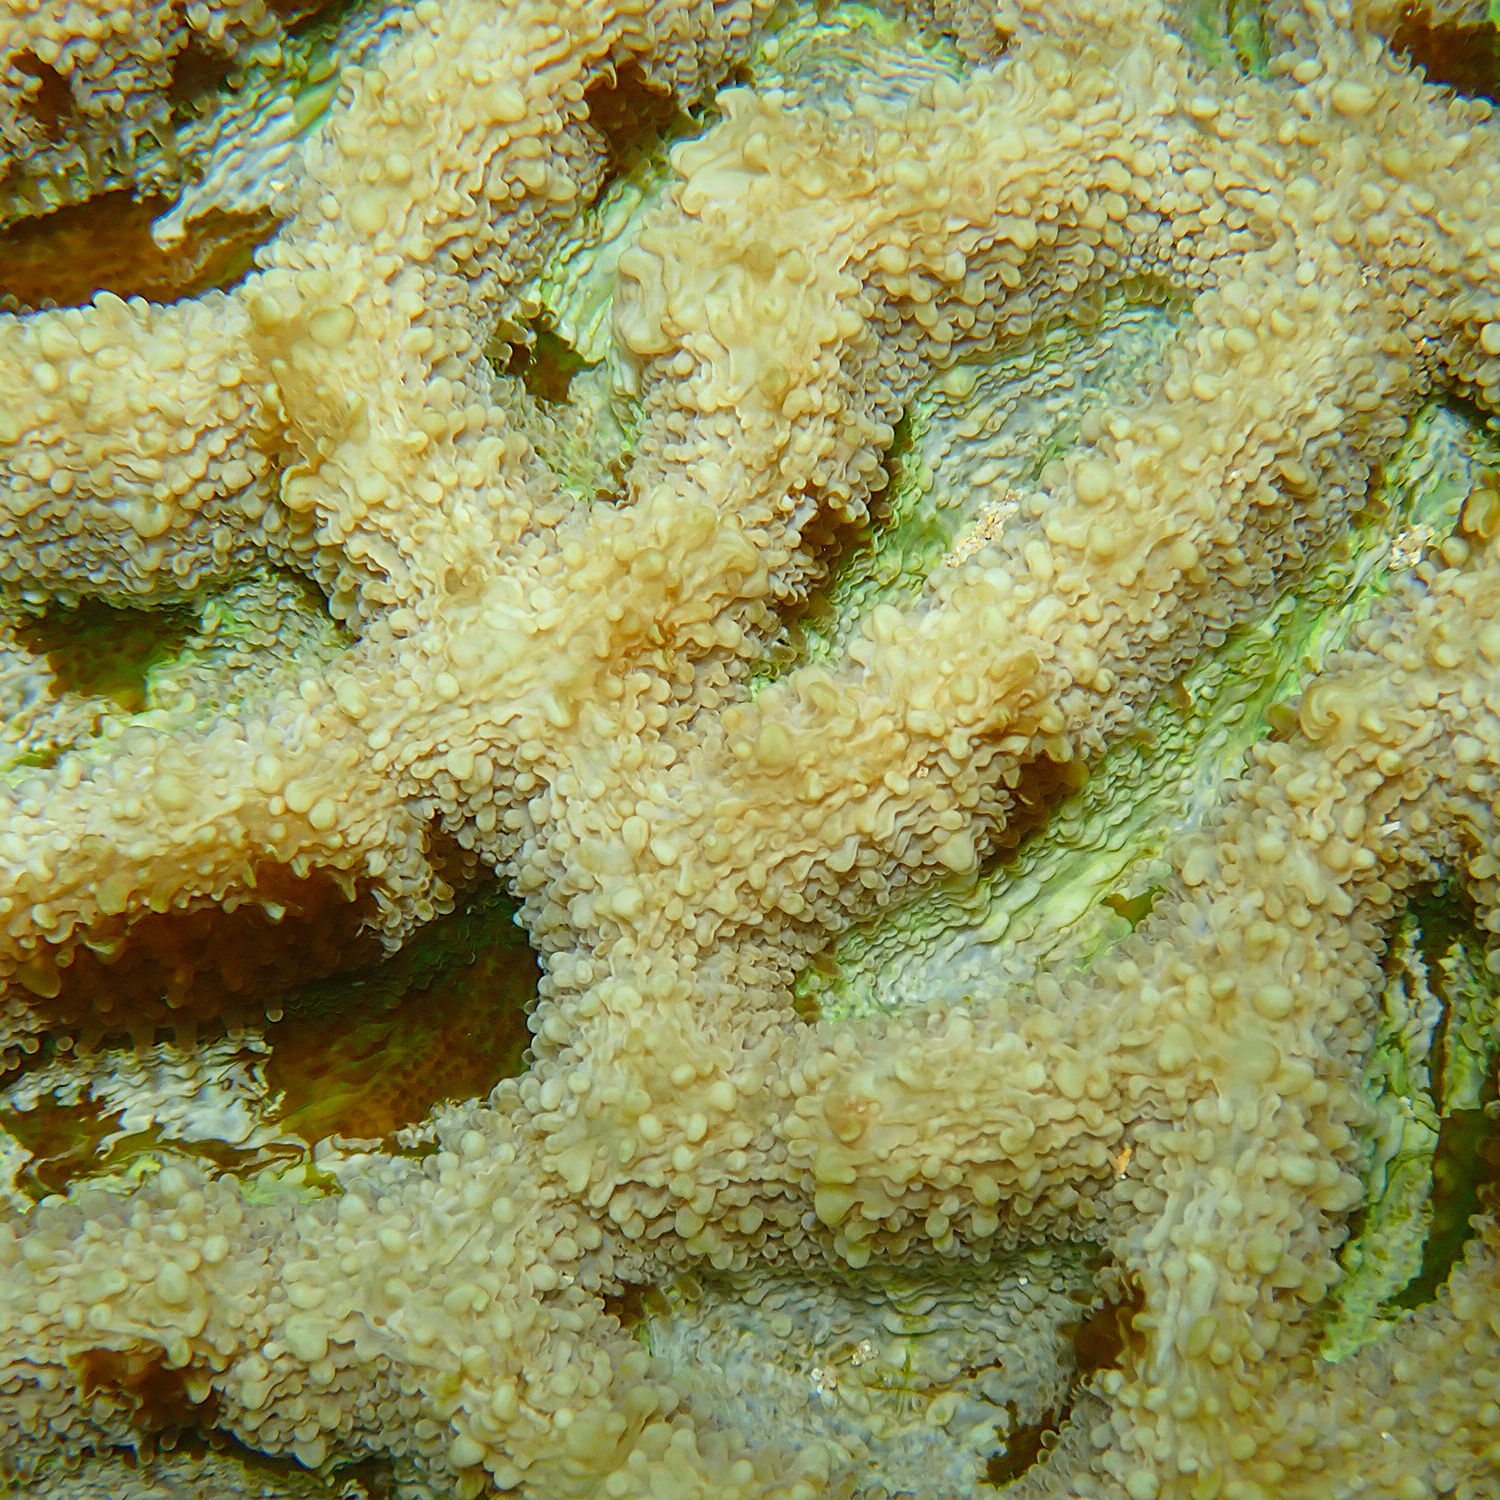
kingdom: Animalia
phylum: Cnidaria
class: Anthozoa
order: Scleractinia
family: Lobophylliidae
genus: Homophyllia
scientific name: Homophyllia bowerbanki
